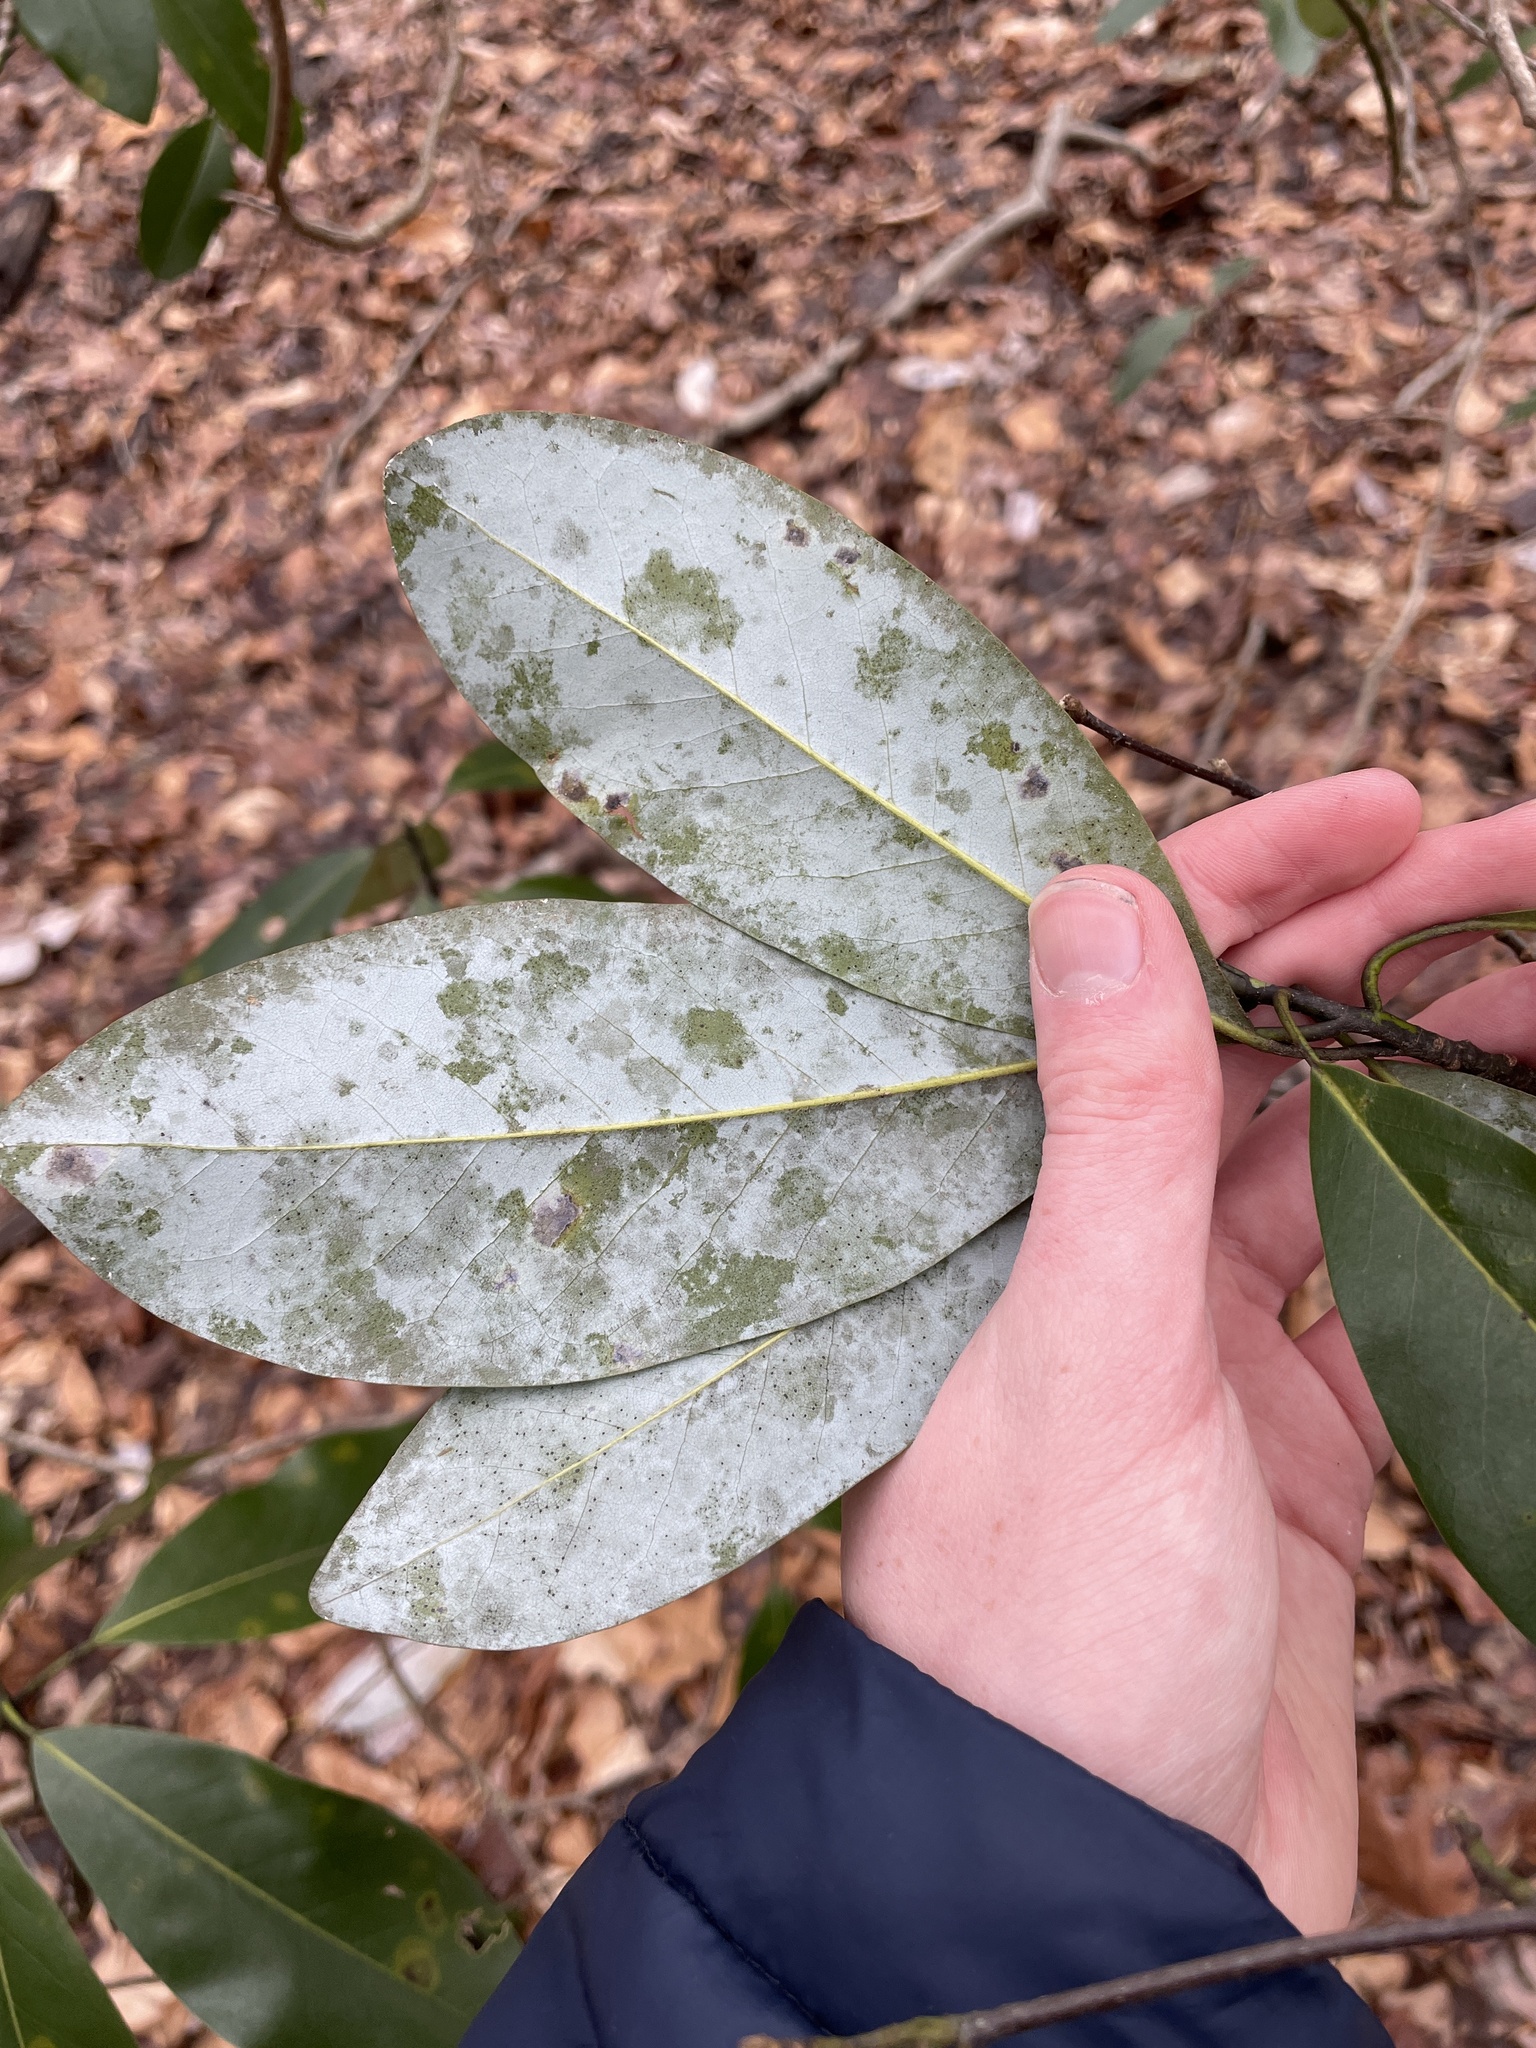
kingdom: Plantae
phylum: Tracheophyta
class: Magnoliopsida
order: Magnoliales
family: Magnoliaceae
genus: Magnolia
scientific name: Magnolia virginiana
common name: Swamp bay
